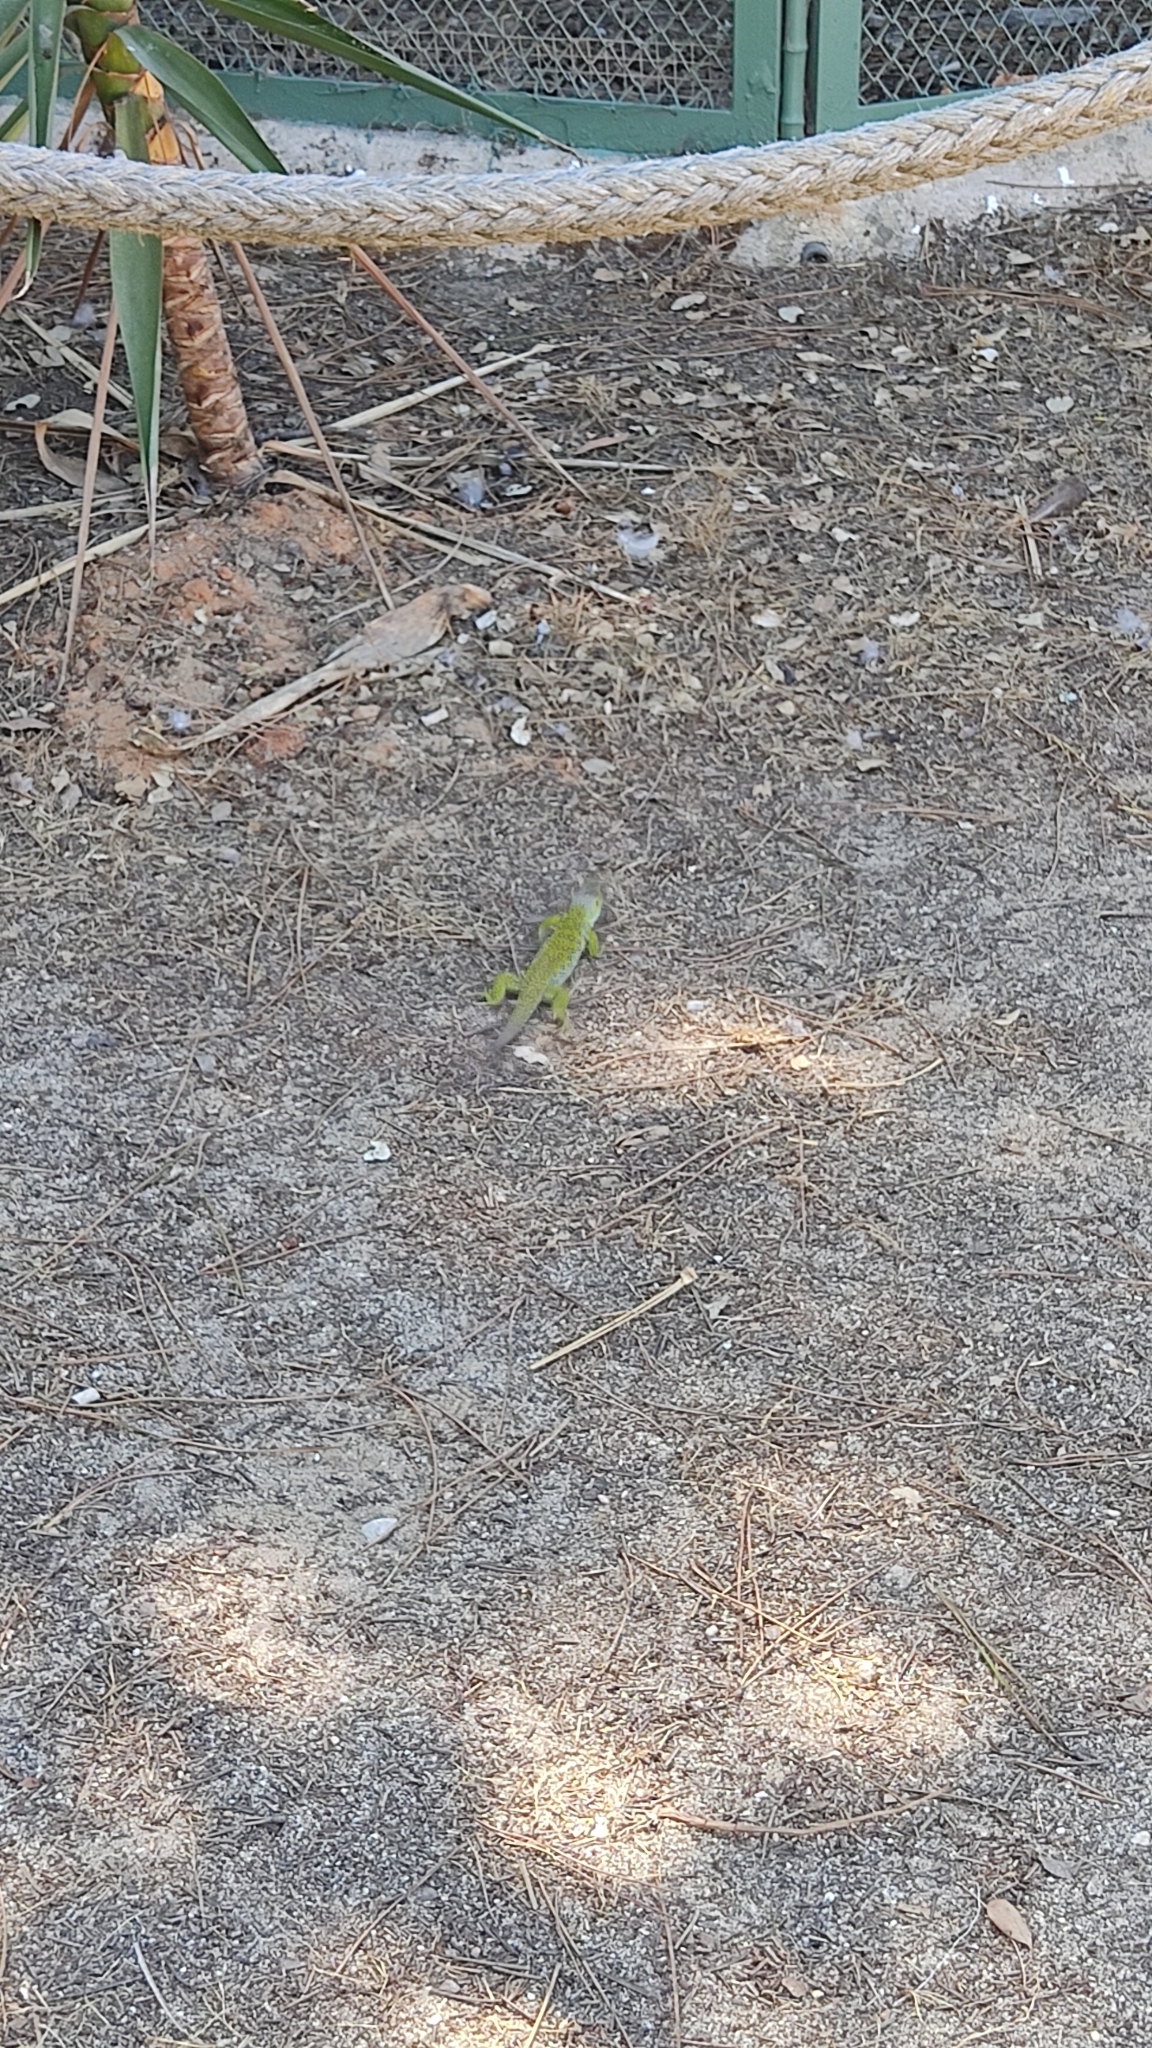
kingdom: Animalia
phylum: Chordata
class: Squamata
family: Lacertidae
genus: Timon
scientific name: Timon lepidus
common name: Ocellated lizard
